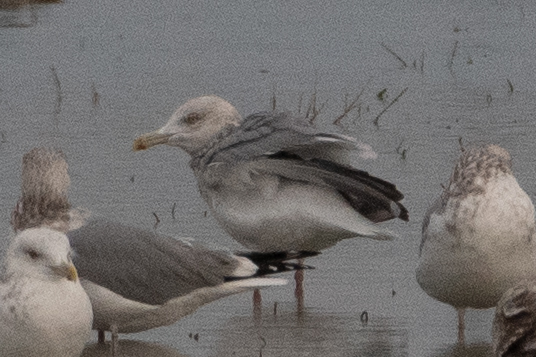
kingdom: Animalia
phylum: Chordata
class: Aves
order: Charadriiformes
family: Laridae
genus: Larus
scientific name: Larus argentatus
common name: Herring gull
